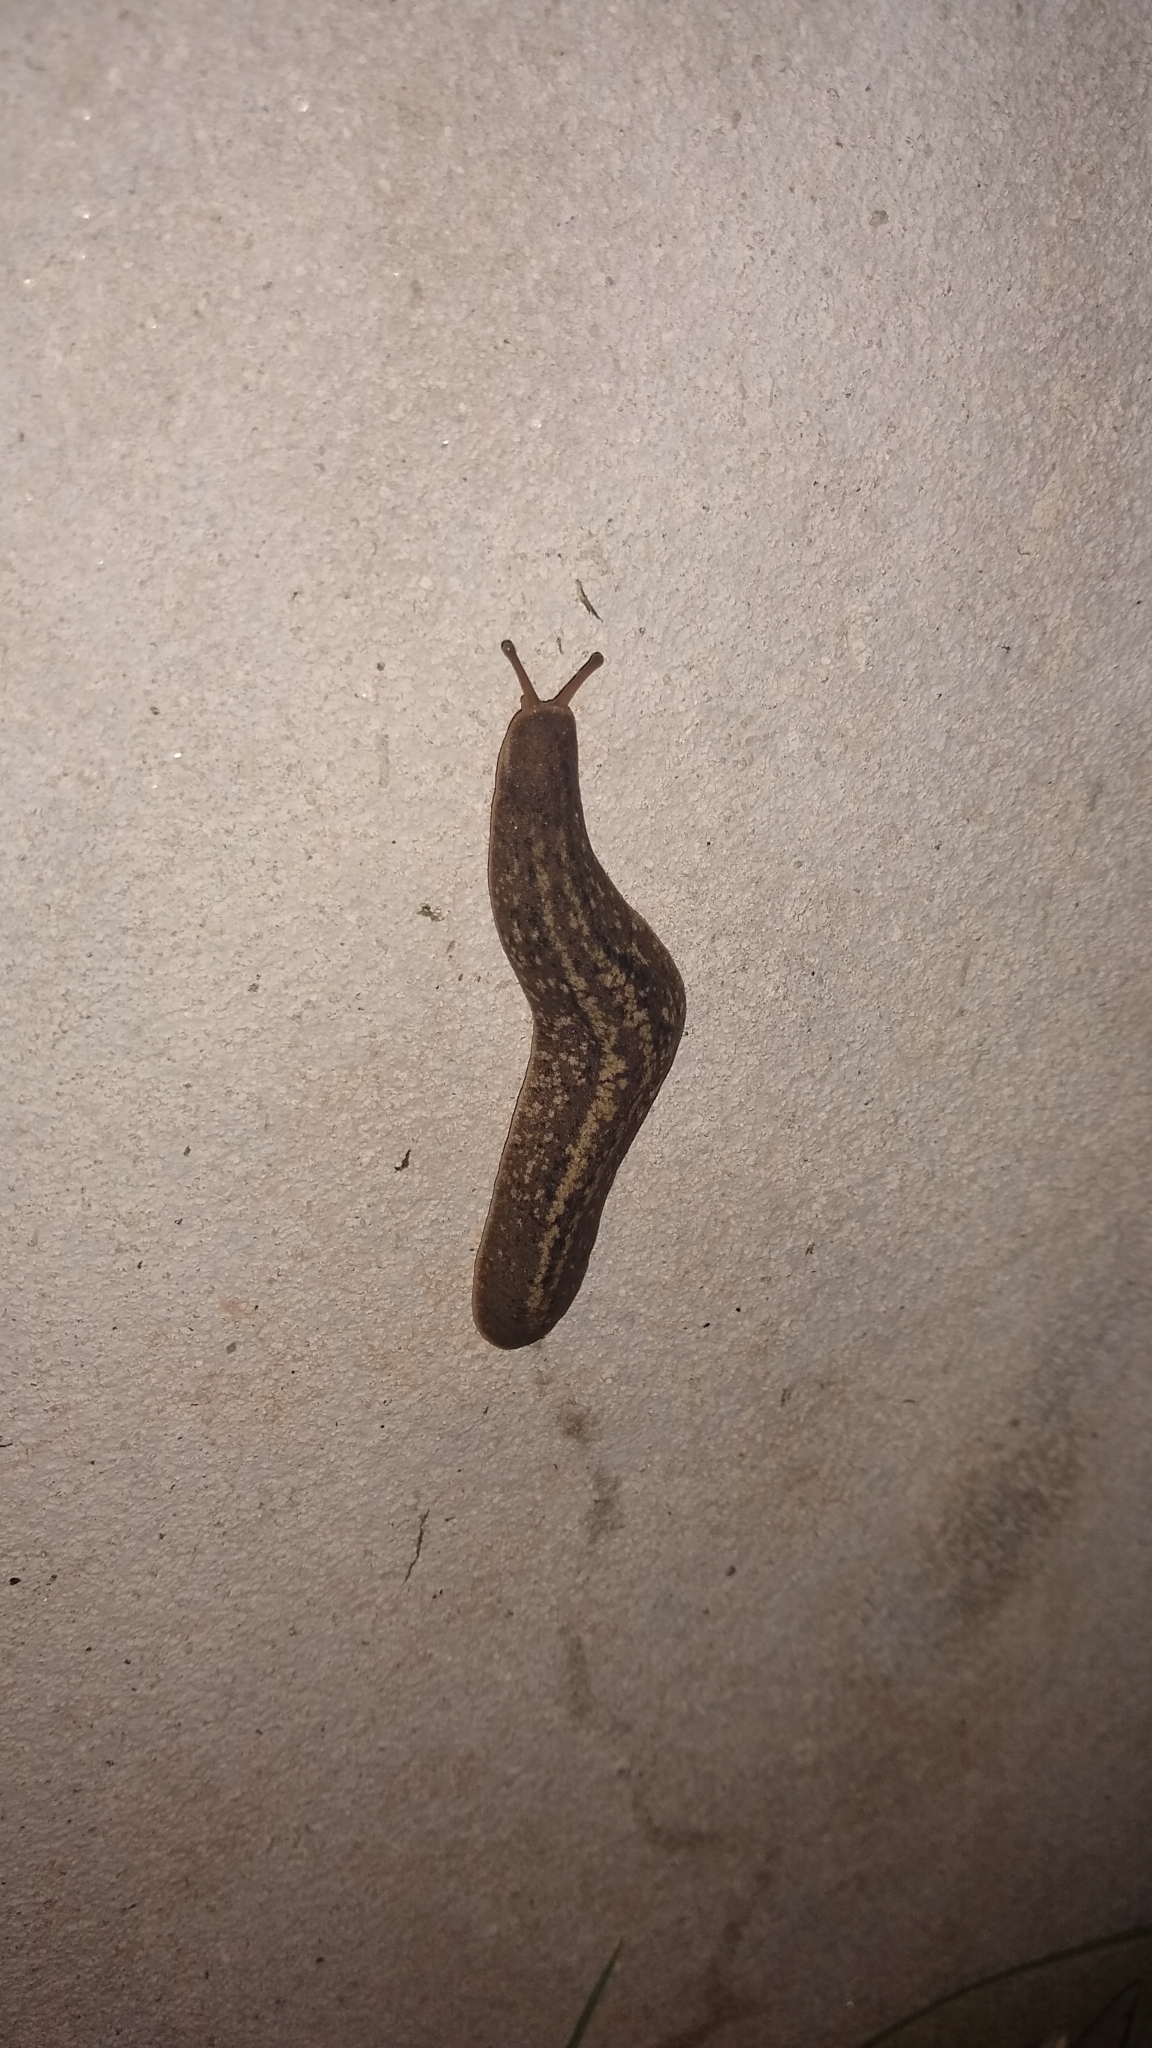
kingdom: Animalia
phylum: Mollusca
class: Gastropoda
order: Systellommatophora
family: Veronicellidae
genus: Phyllocaulis
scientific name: Phyllocaulis soleiformis
